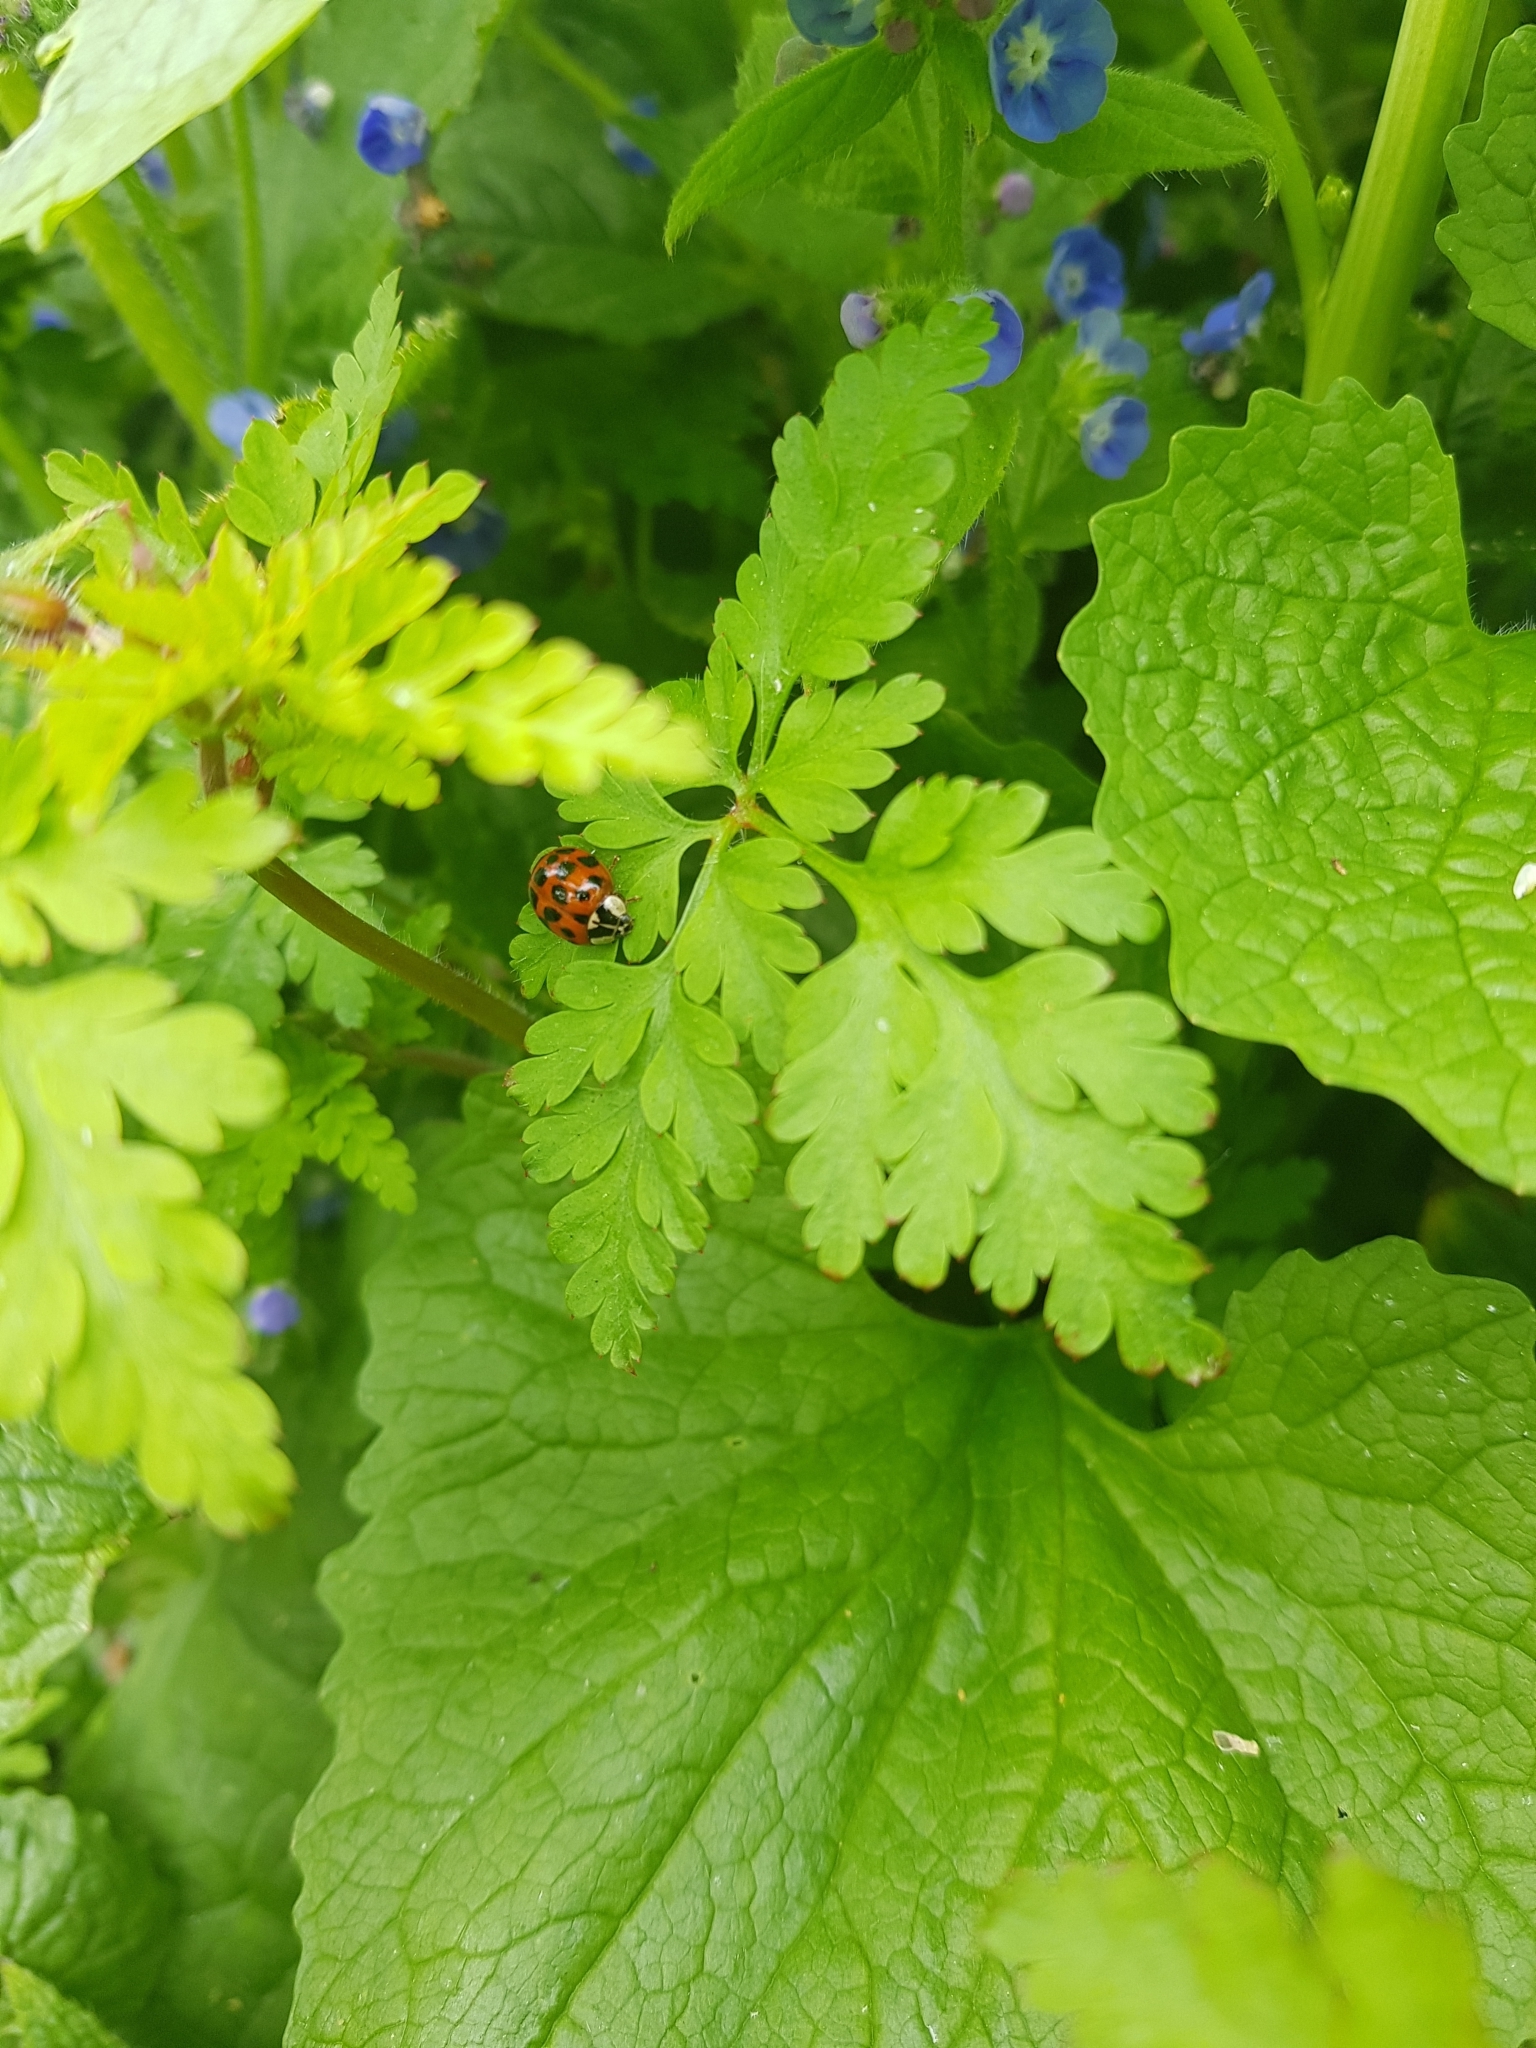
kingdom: Animalia
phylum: Arthropoda
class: Insecta
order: Coleoptera
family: Coccinellidae
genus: Harmonia
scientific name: Harmonia axyridis
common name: Harlequin ladybird
